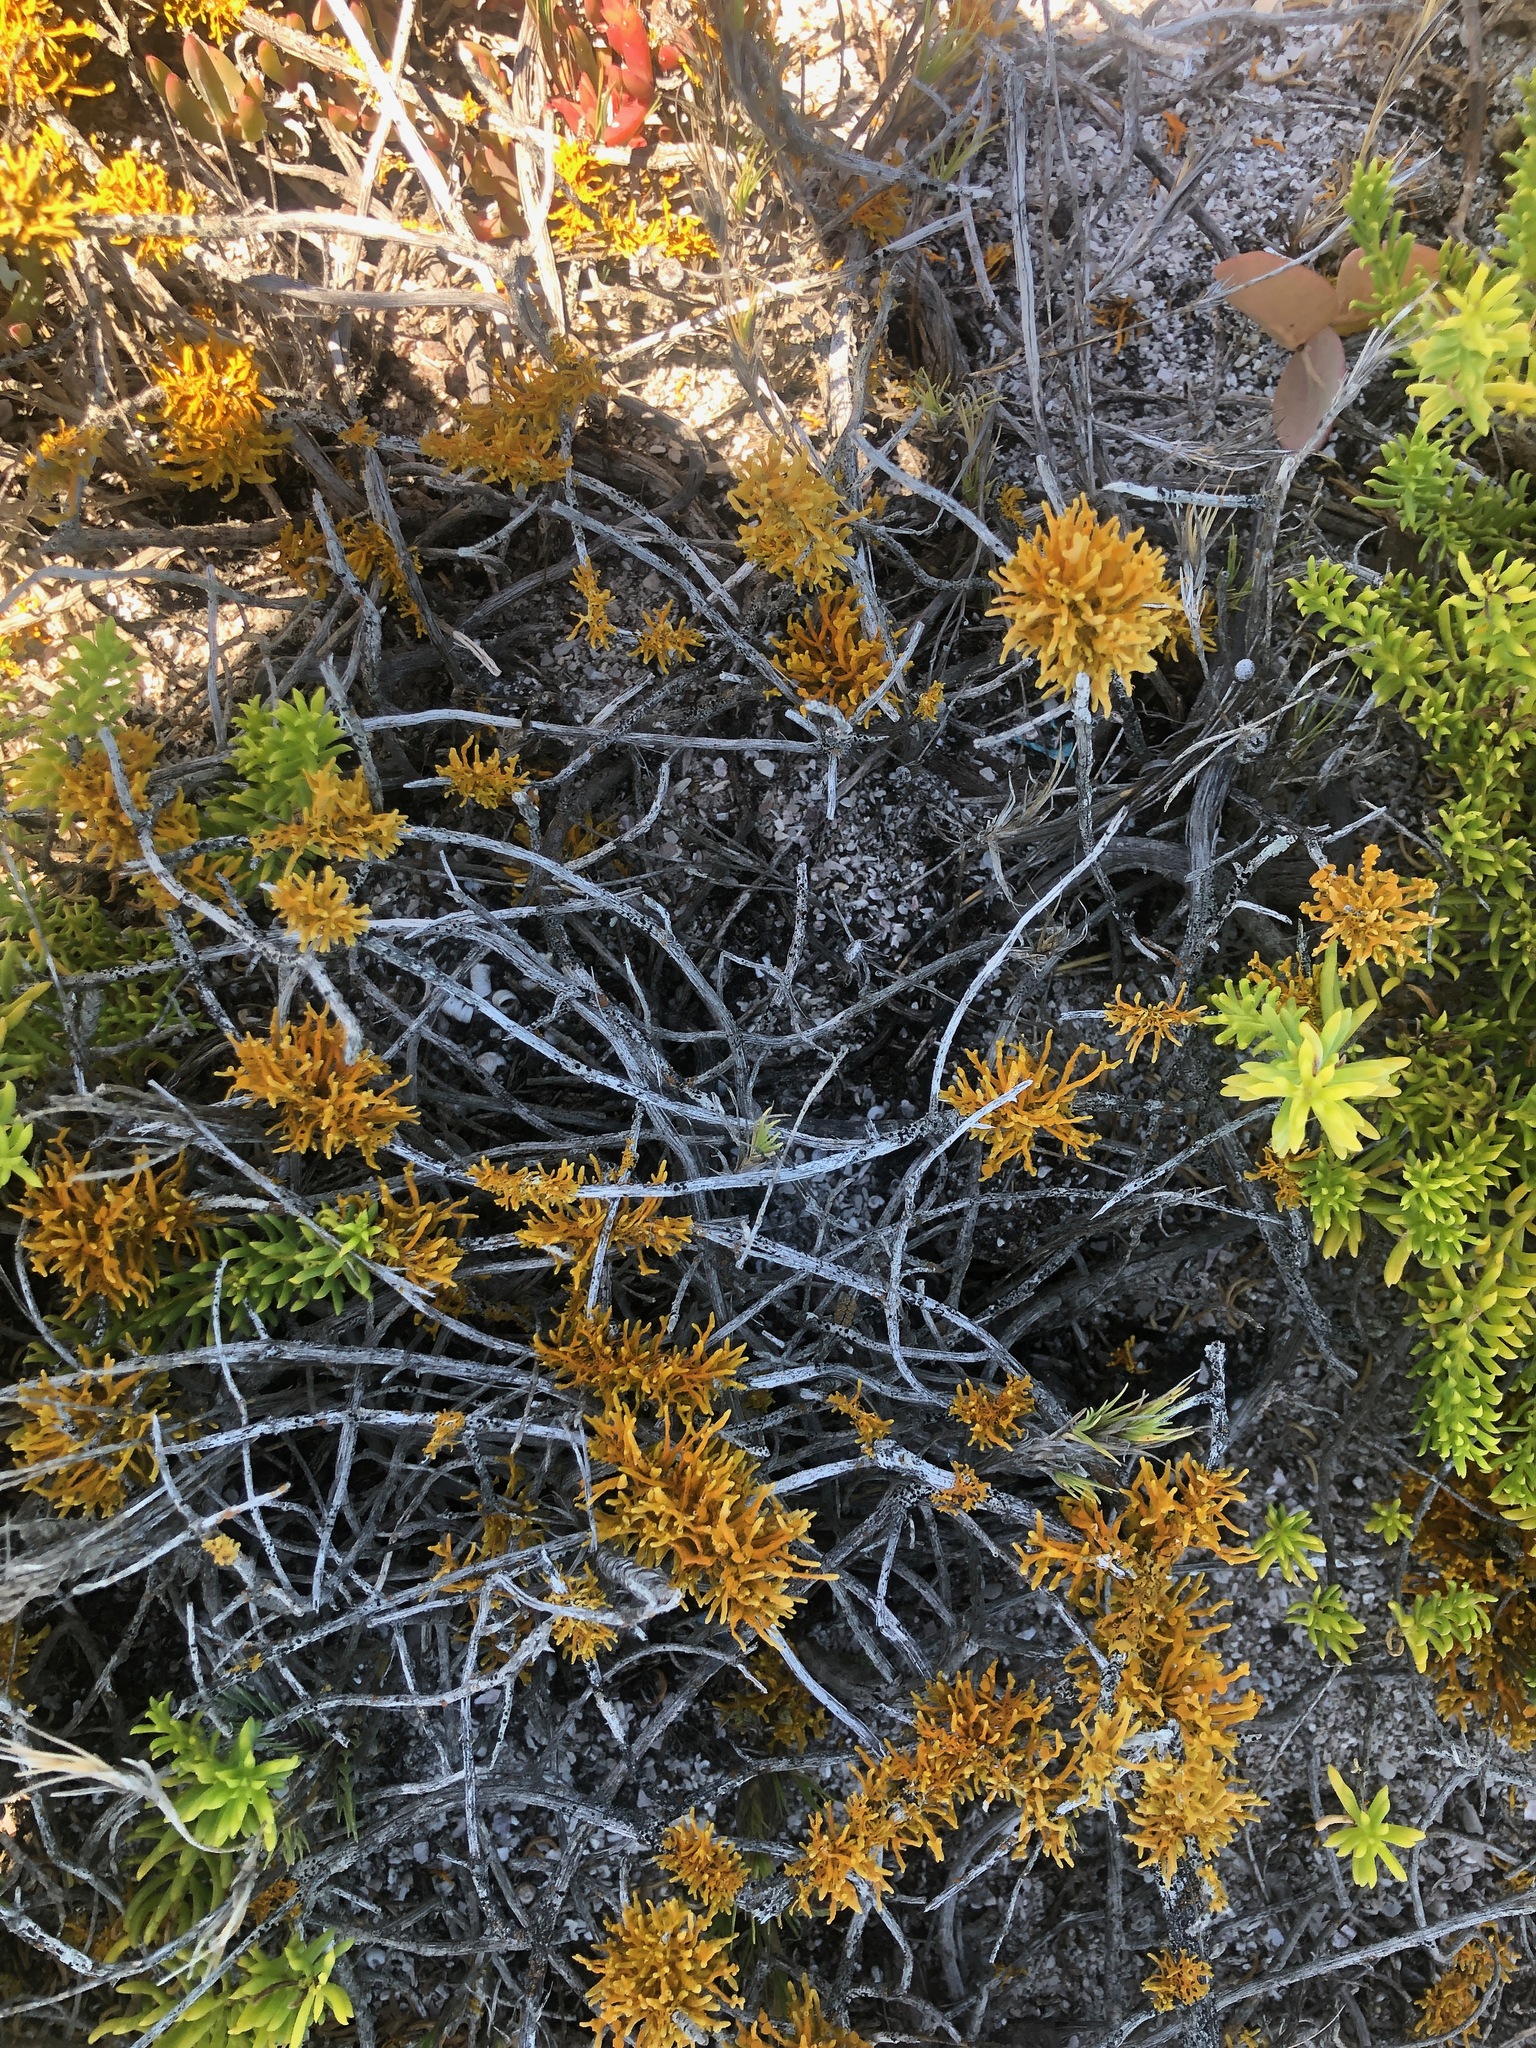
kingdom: Fungi
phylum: Ascomycota
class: Lecanoromycetes
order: Teloschistales
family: Teloschistaceae
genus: Dufourea
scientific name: Dufourea flammea
